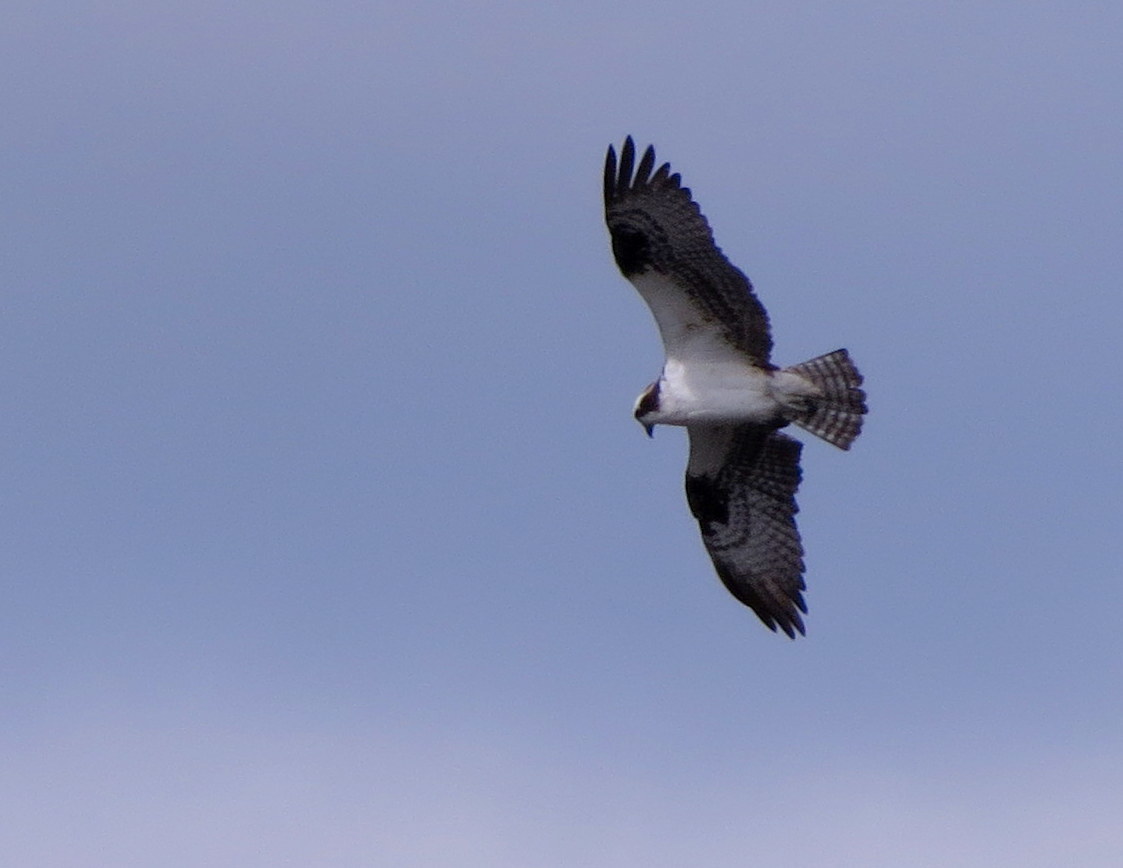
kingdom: Animalia
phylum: Chordata
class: Aves
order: Accipitriformes
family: Pandionidae
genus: Pandion
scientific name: Pandion haliaetus
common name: Osprey
